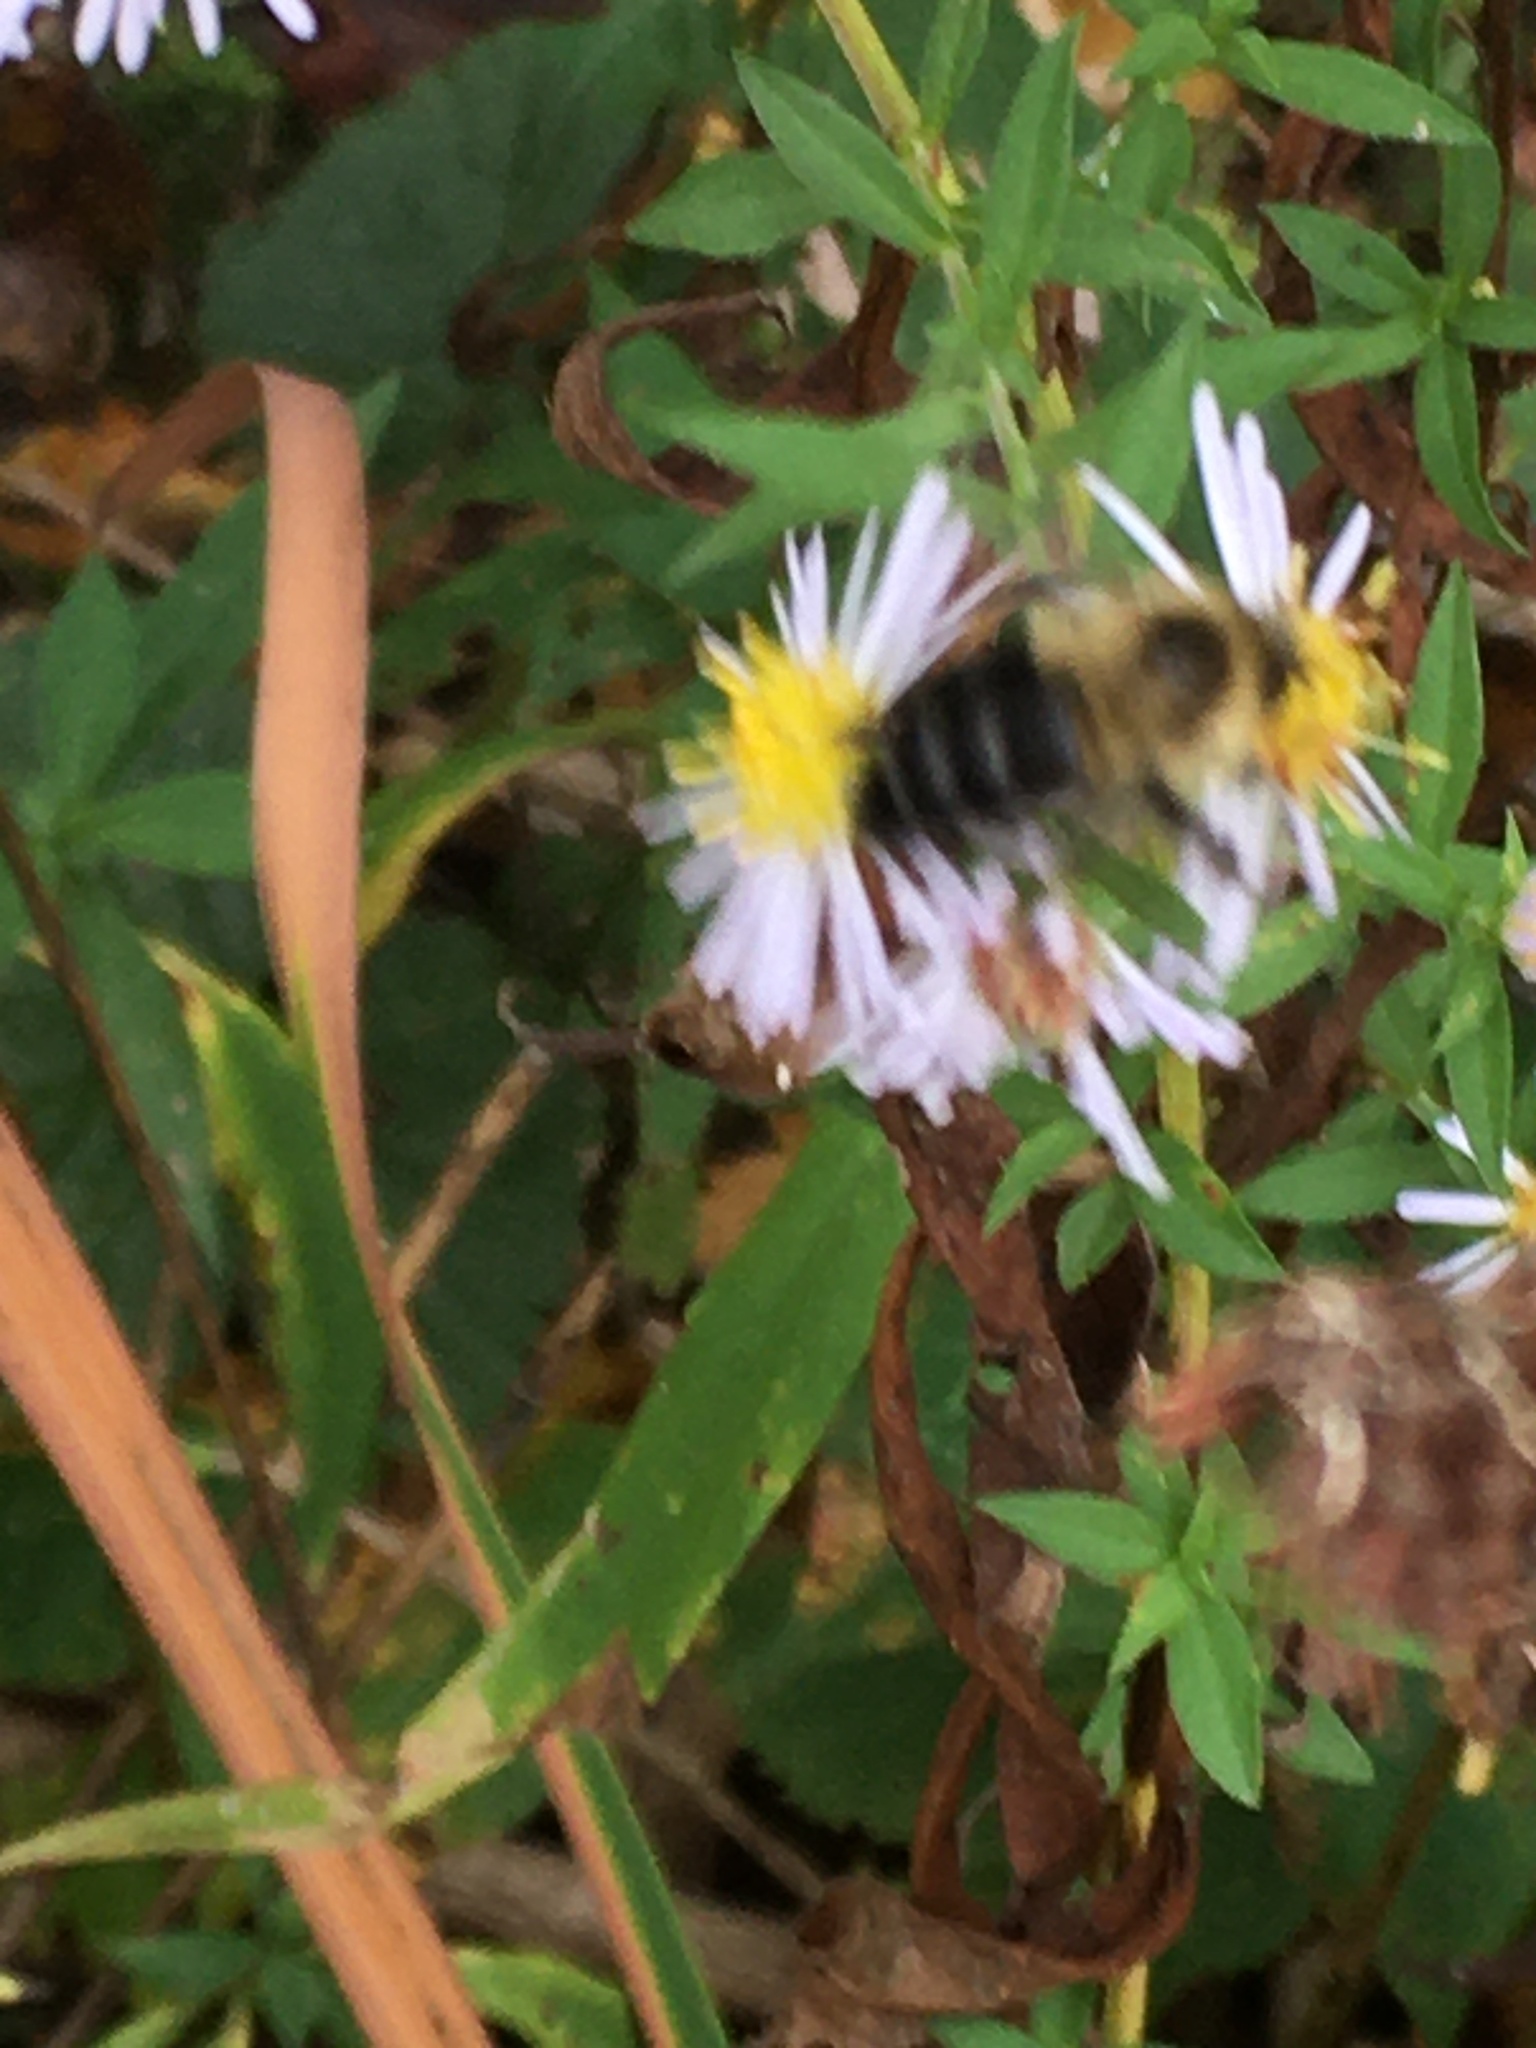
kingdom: Animalia
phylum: Arthropoda
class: Insecta
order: Hymenoptera
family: Apidae
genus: Bombus
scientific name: Bombus impatiens
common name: Common eastern bumble bee
